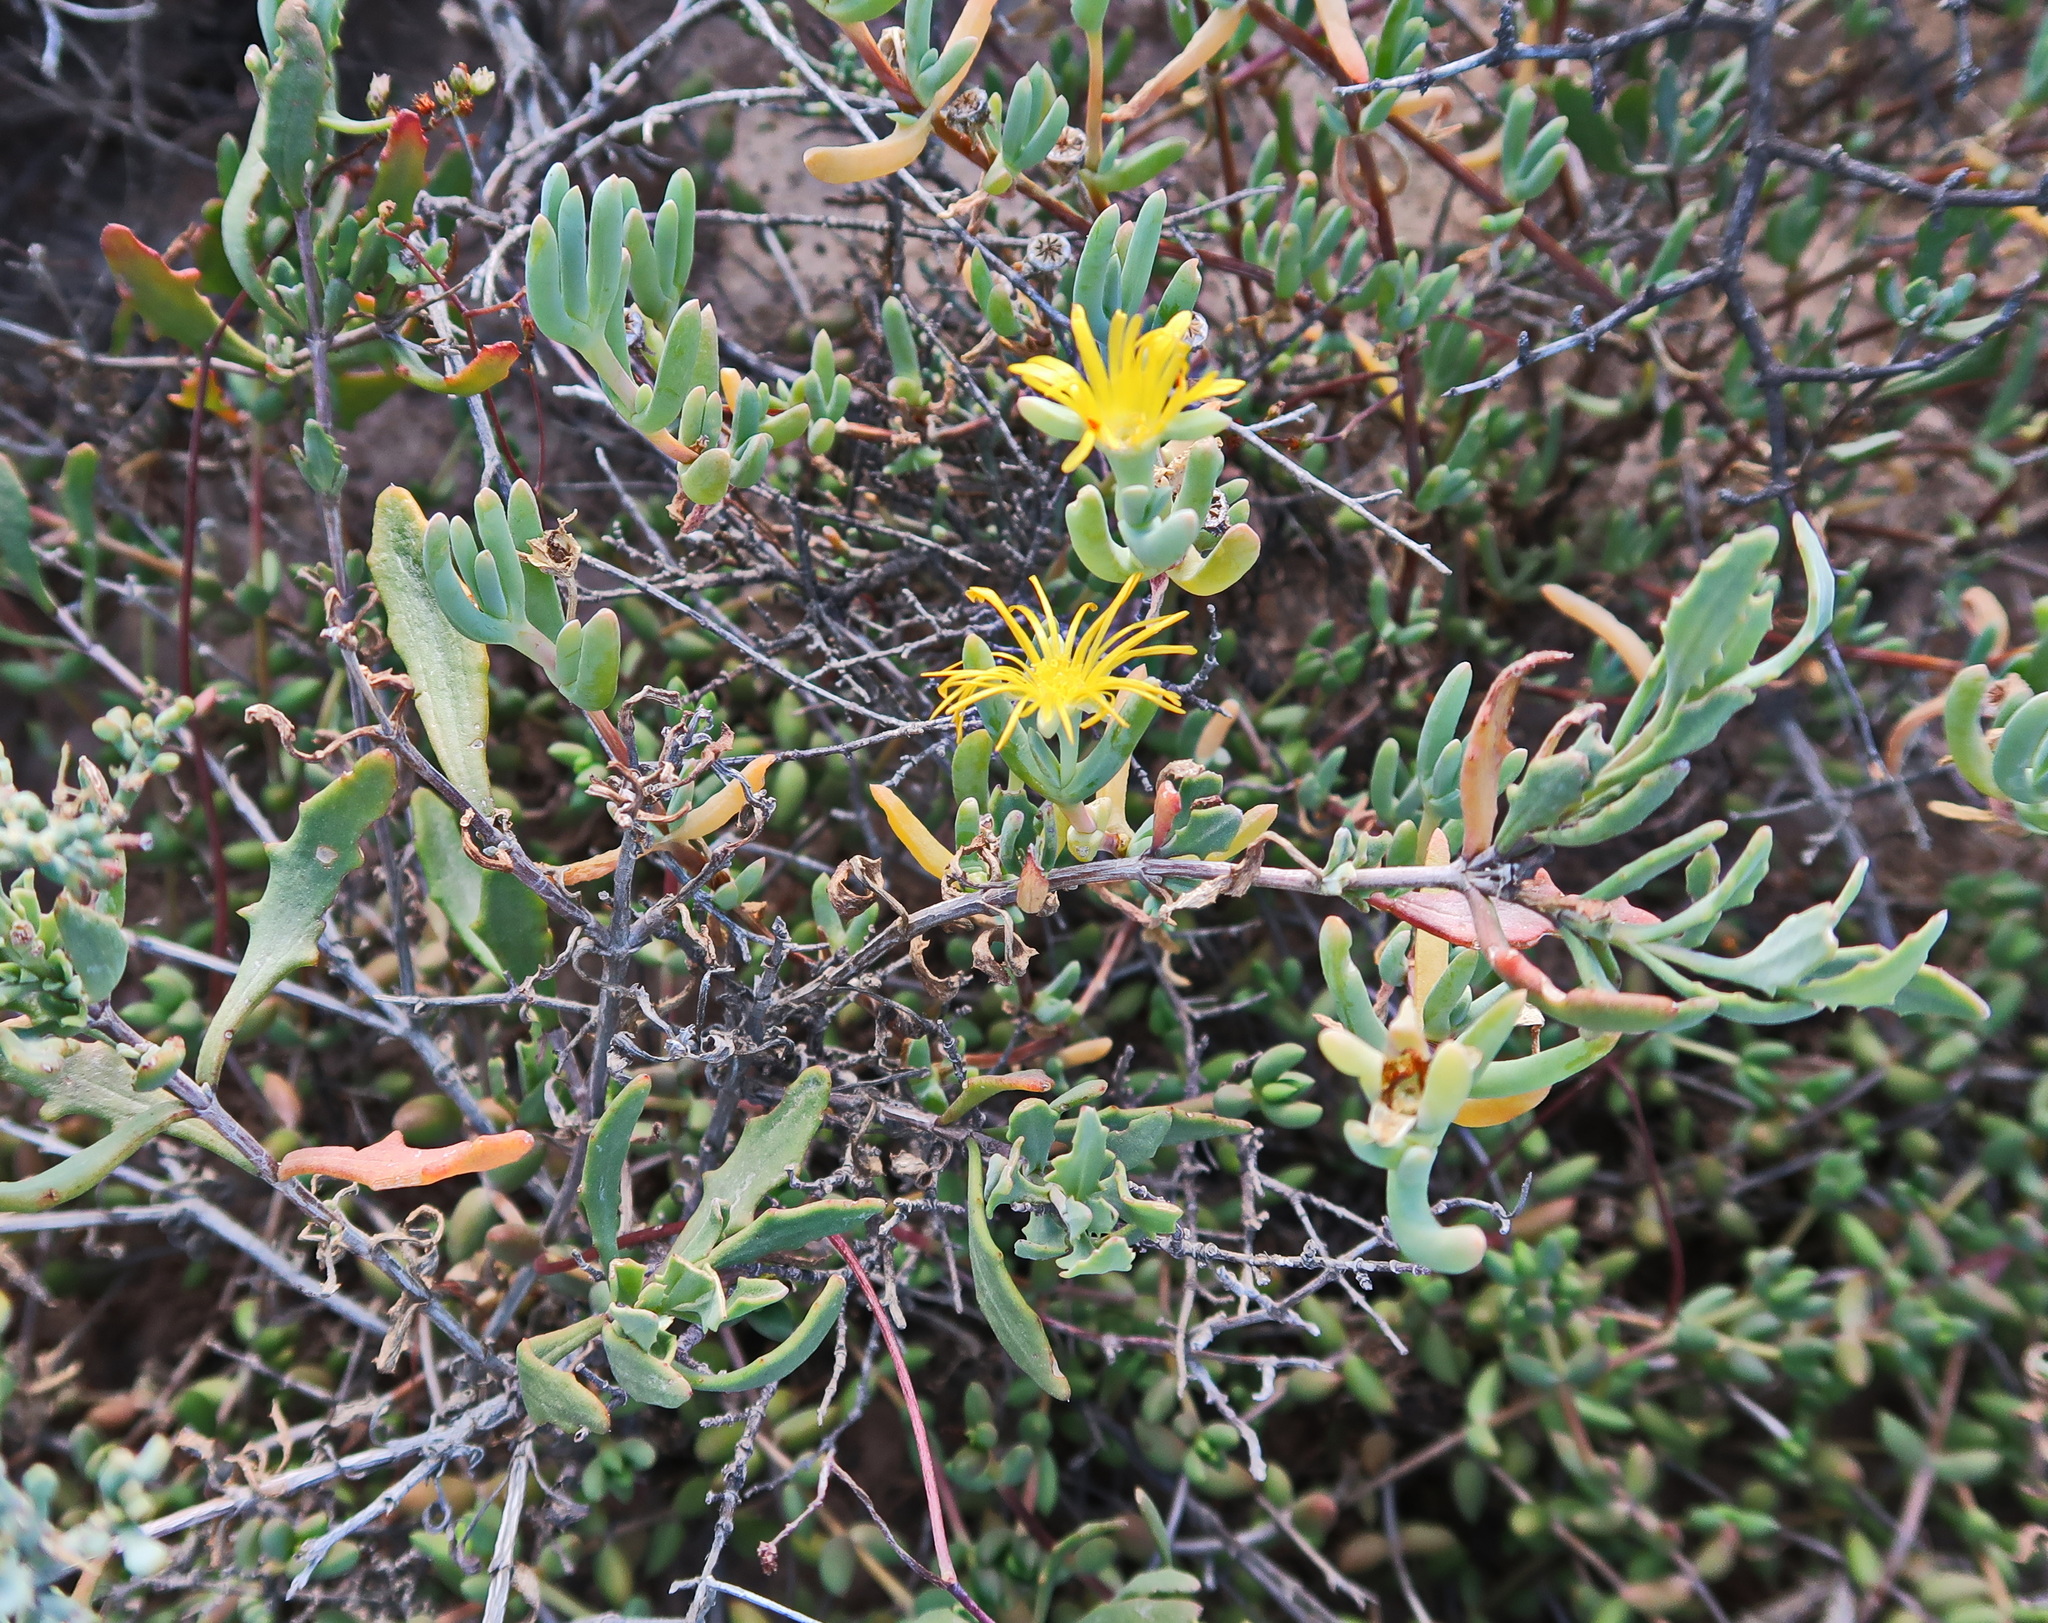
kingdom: Plantae
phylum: Tracheophyta
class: Magnoliopsida
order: Caryophyllales
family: Aizoaceae
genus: Malephora
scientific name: Malephora lutea
